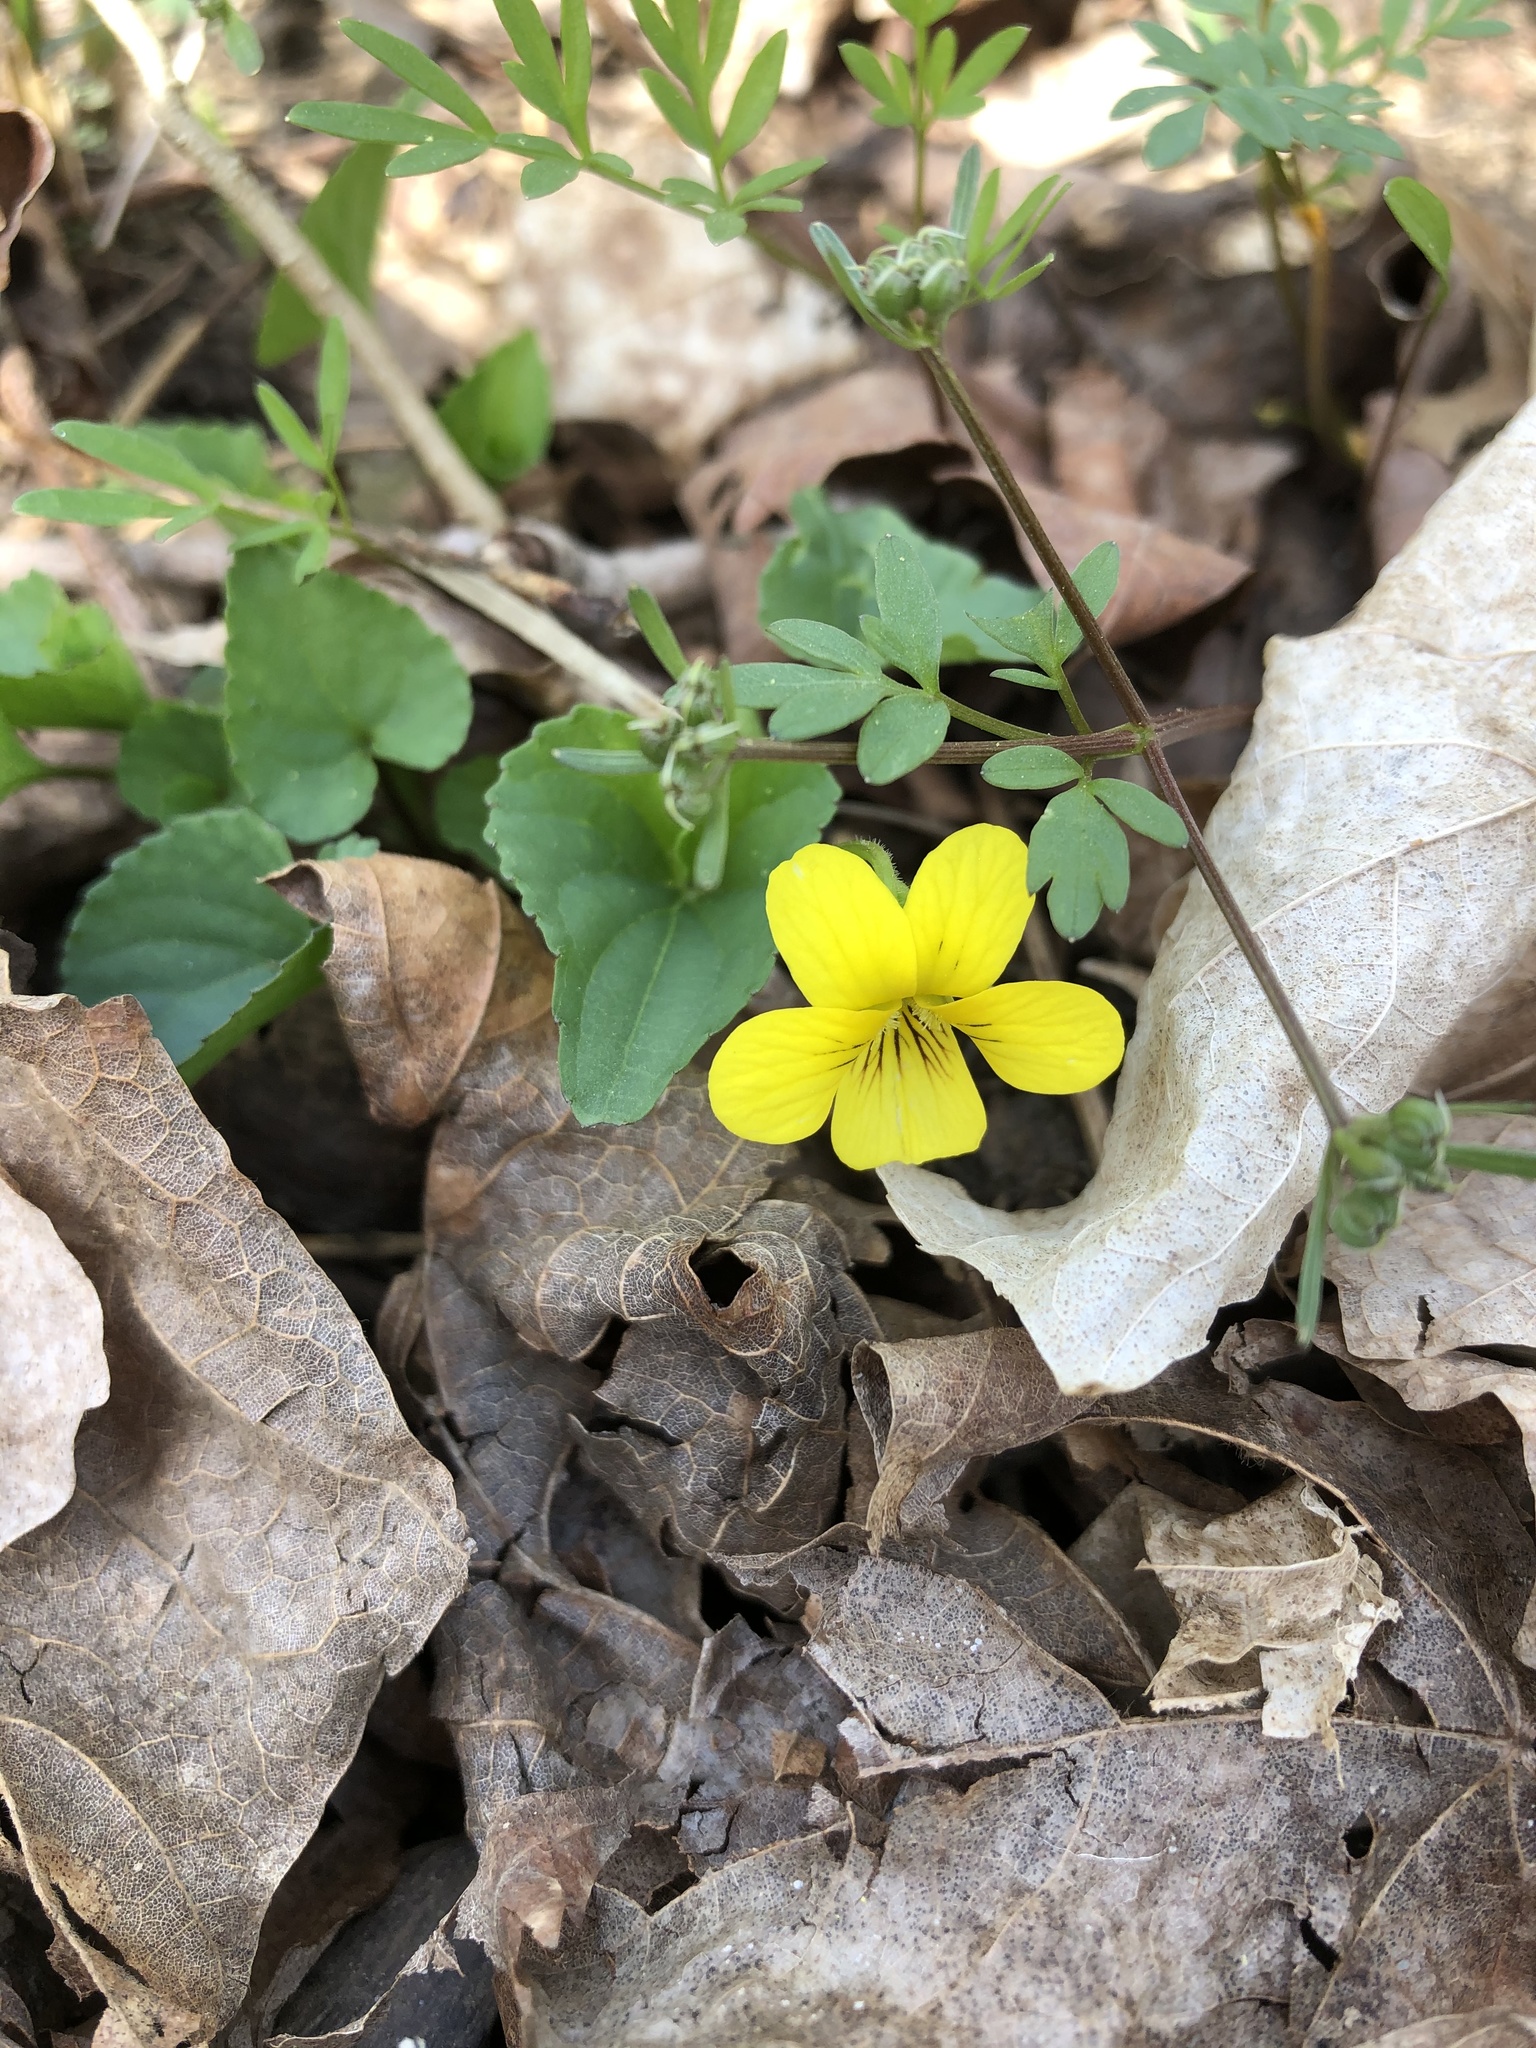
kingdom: Plantae
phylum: Tracheophyta
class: Magnoliopsida
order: Malpighiales
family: Violaceae
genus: Viola
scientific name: Viola eriocarpa
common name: Smooth yellow violet
